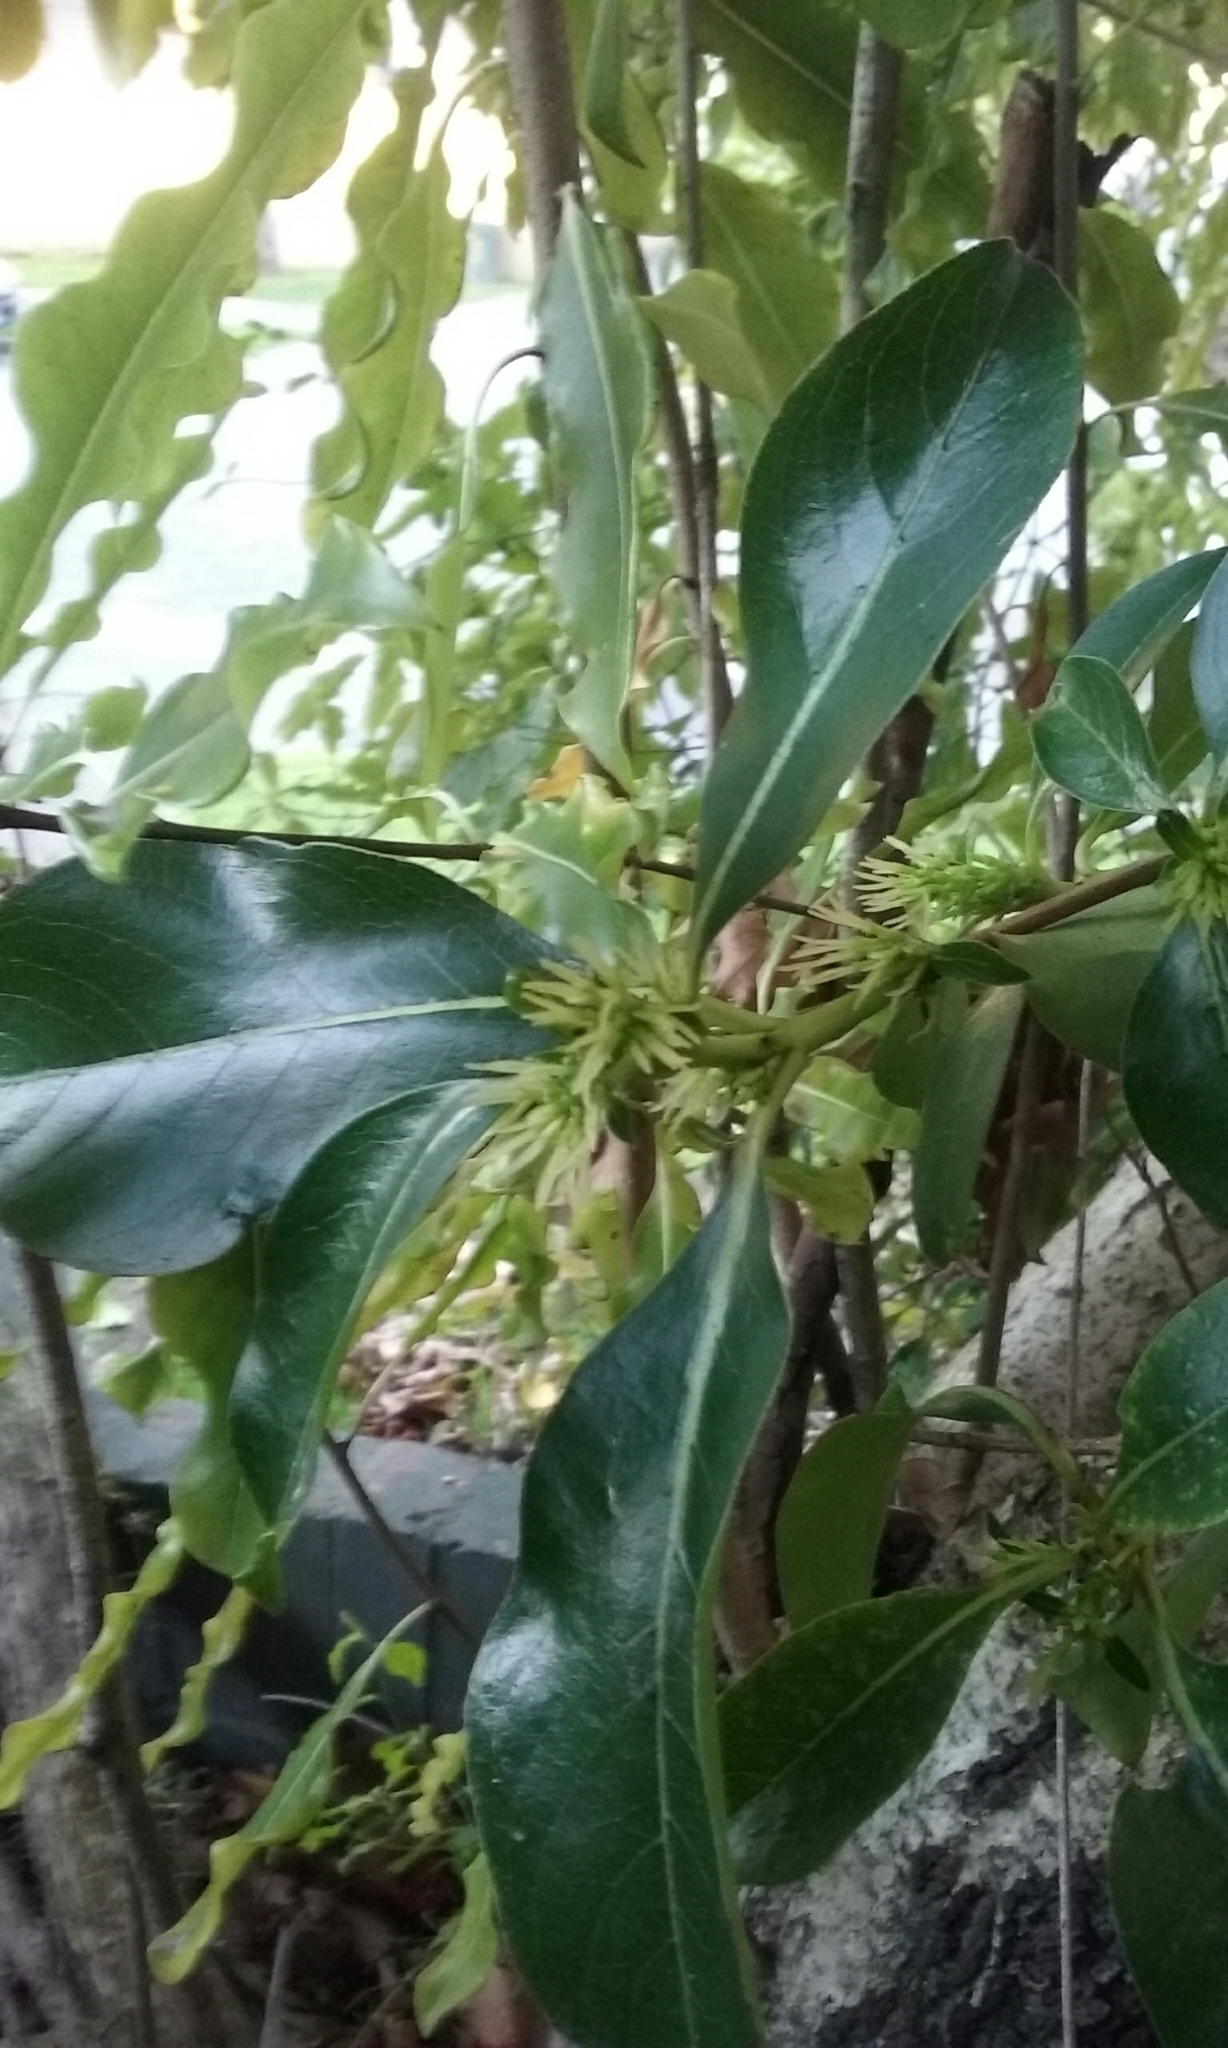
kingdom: Plantae
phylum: Tracheophyta
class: Magnoliopsida
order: Gentianales
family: Rubiaceae
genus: Coprosma
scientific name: Coprosma robusta
